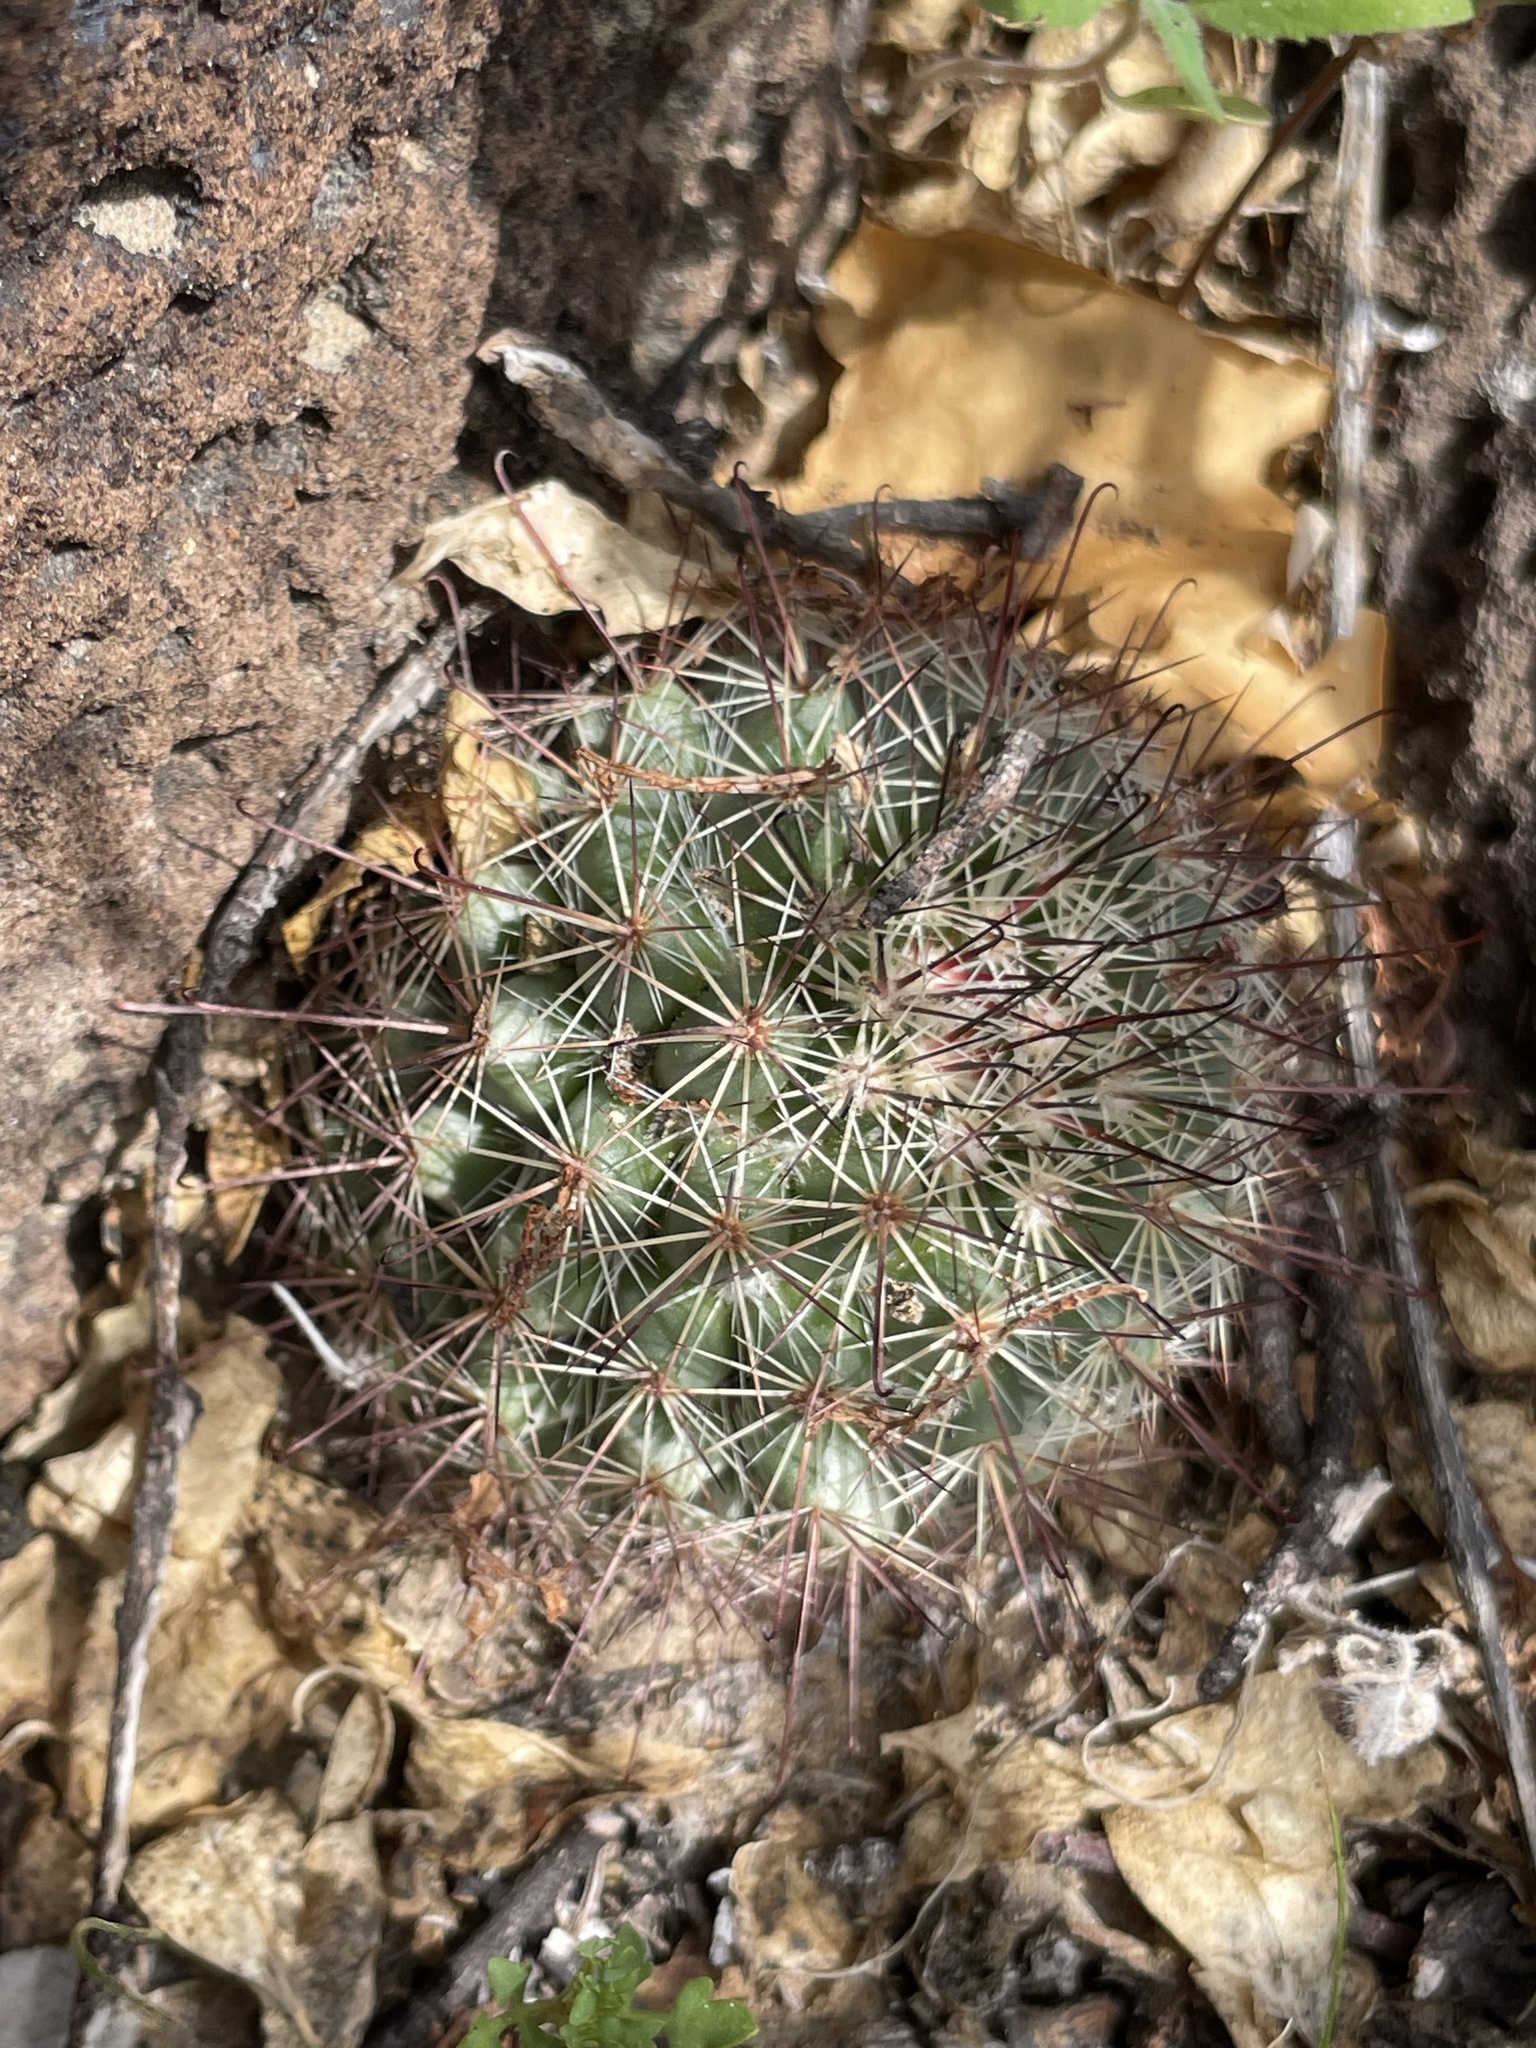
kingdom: Plantae
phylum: Tracheophyta
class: Magnoliopsida
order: Caryophyllales
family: Cactaceae
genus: Cochemiea
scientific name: Cochemiea dioica
